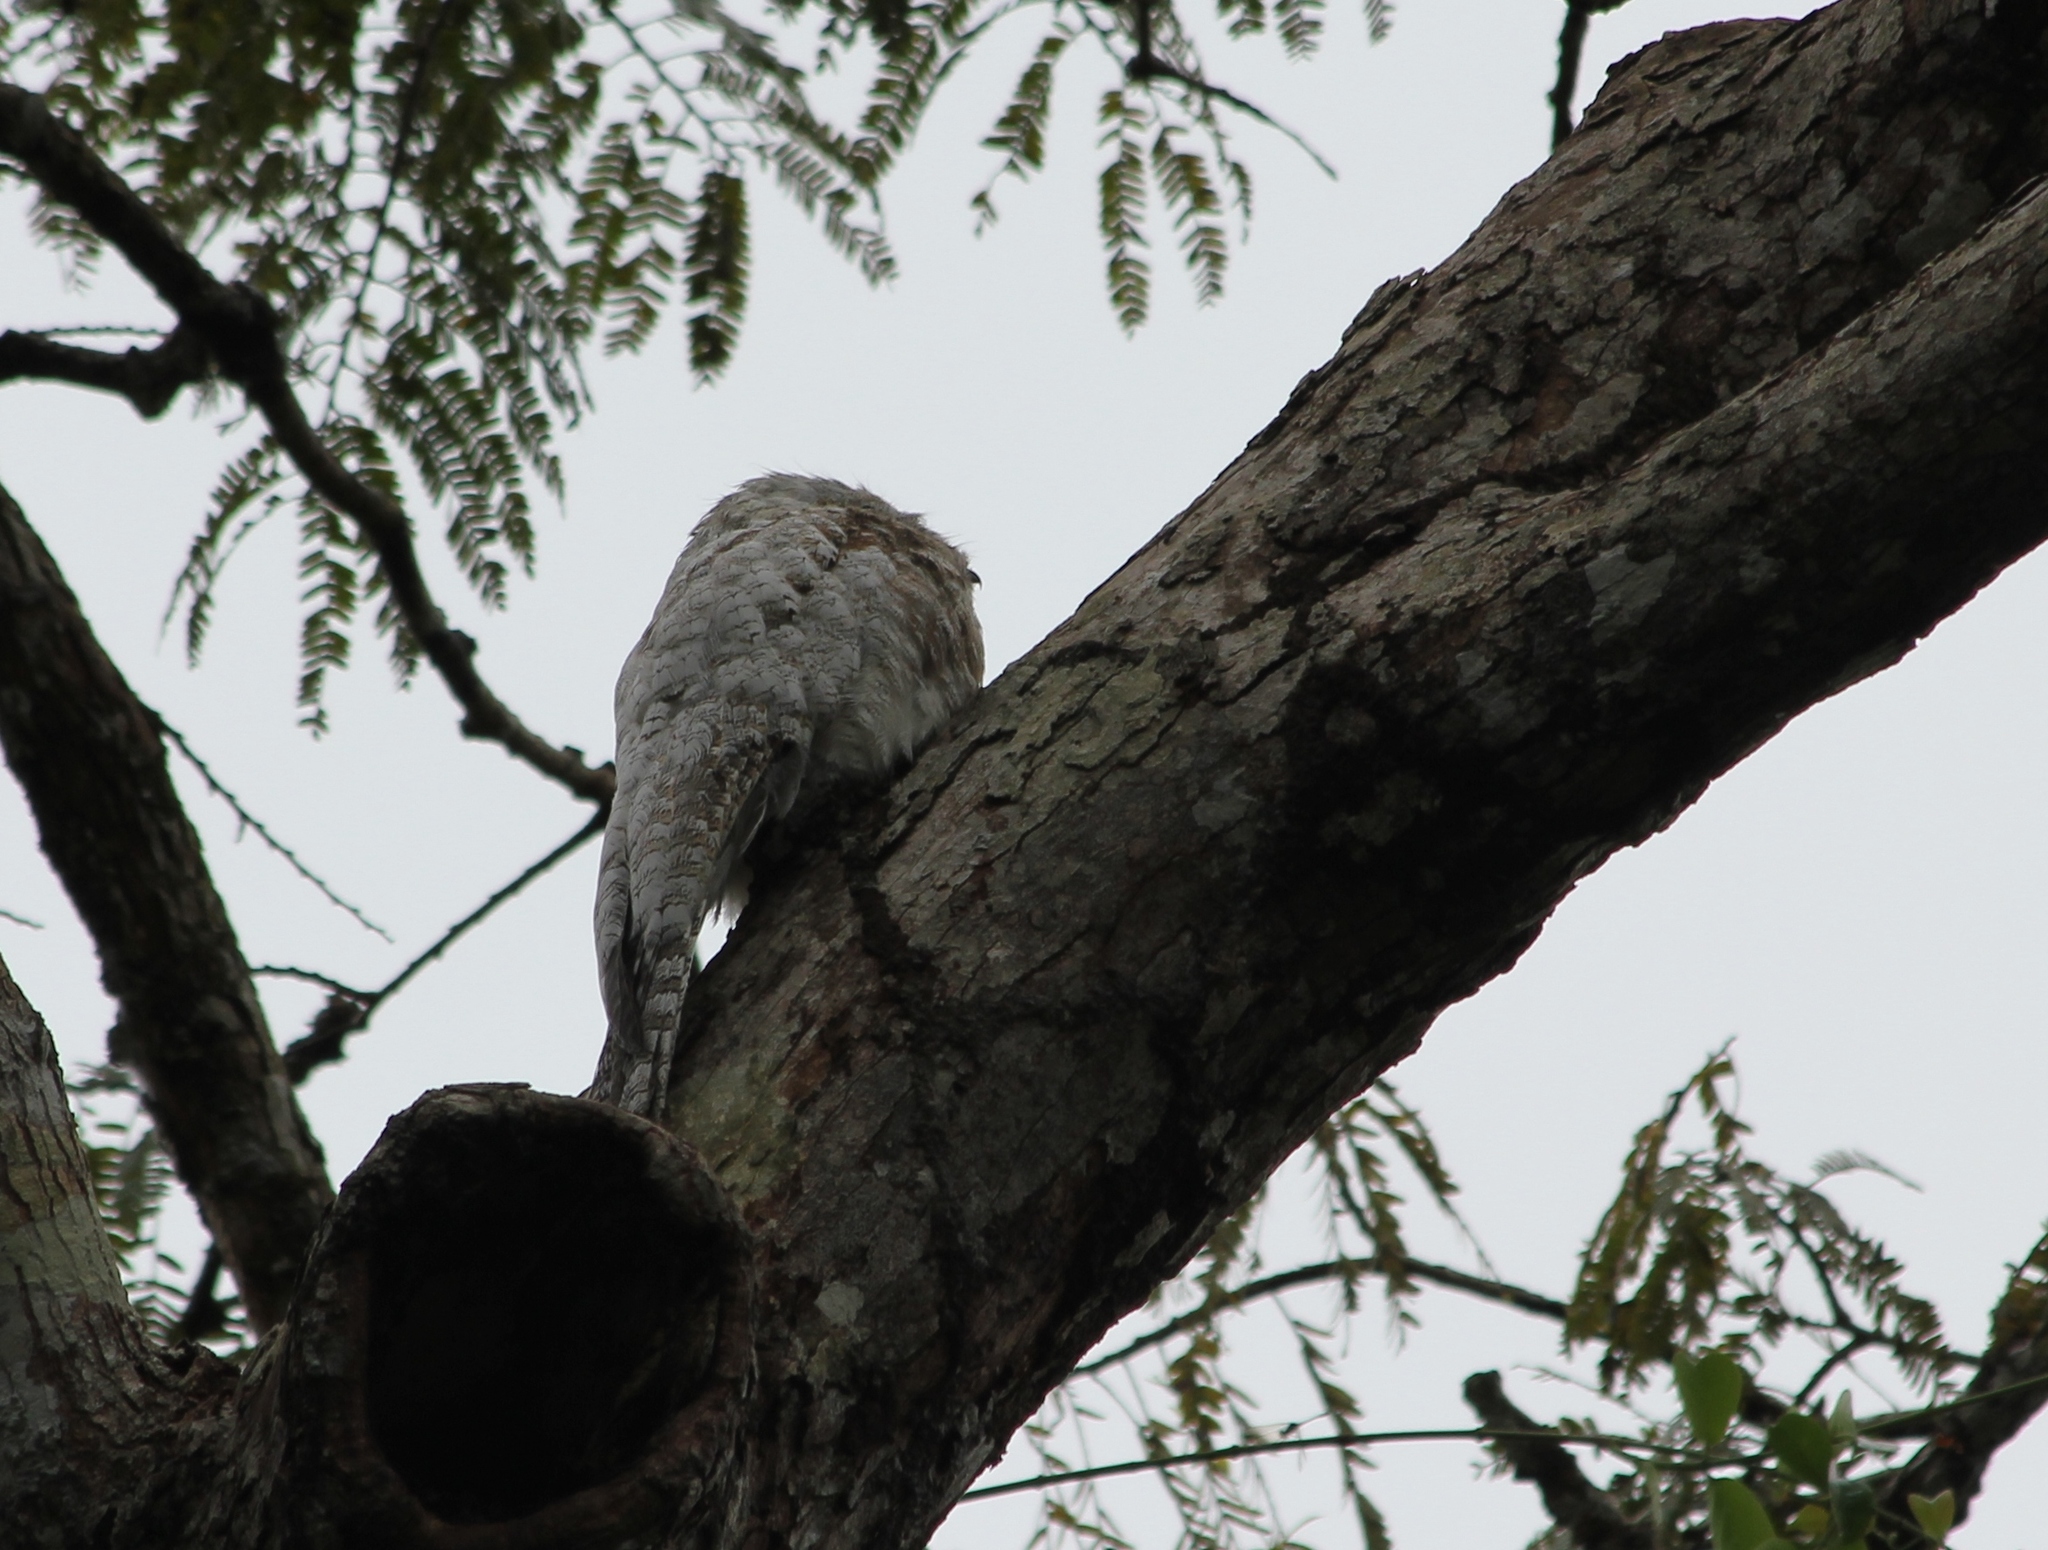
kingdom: Animalia
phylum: Chordata
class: Aves
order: Nyctibiiformes
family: Nyctibiidae
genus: Nyctibius
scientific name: Nyctibius grandis
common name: Great potoo
